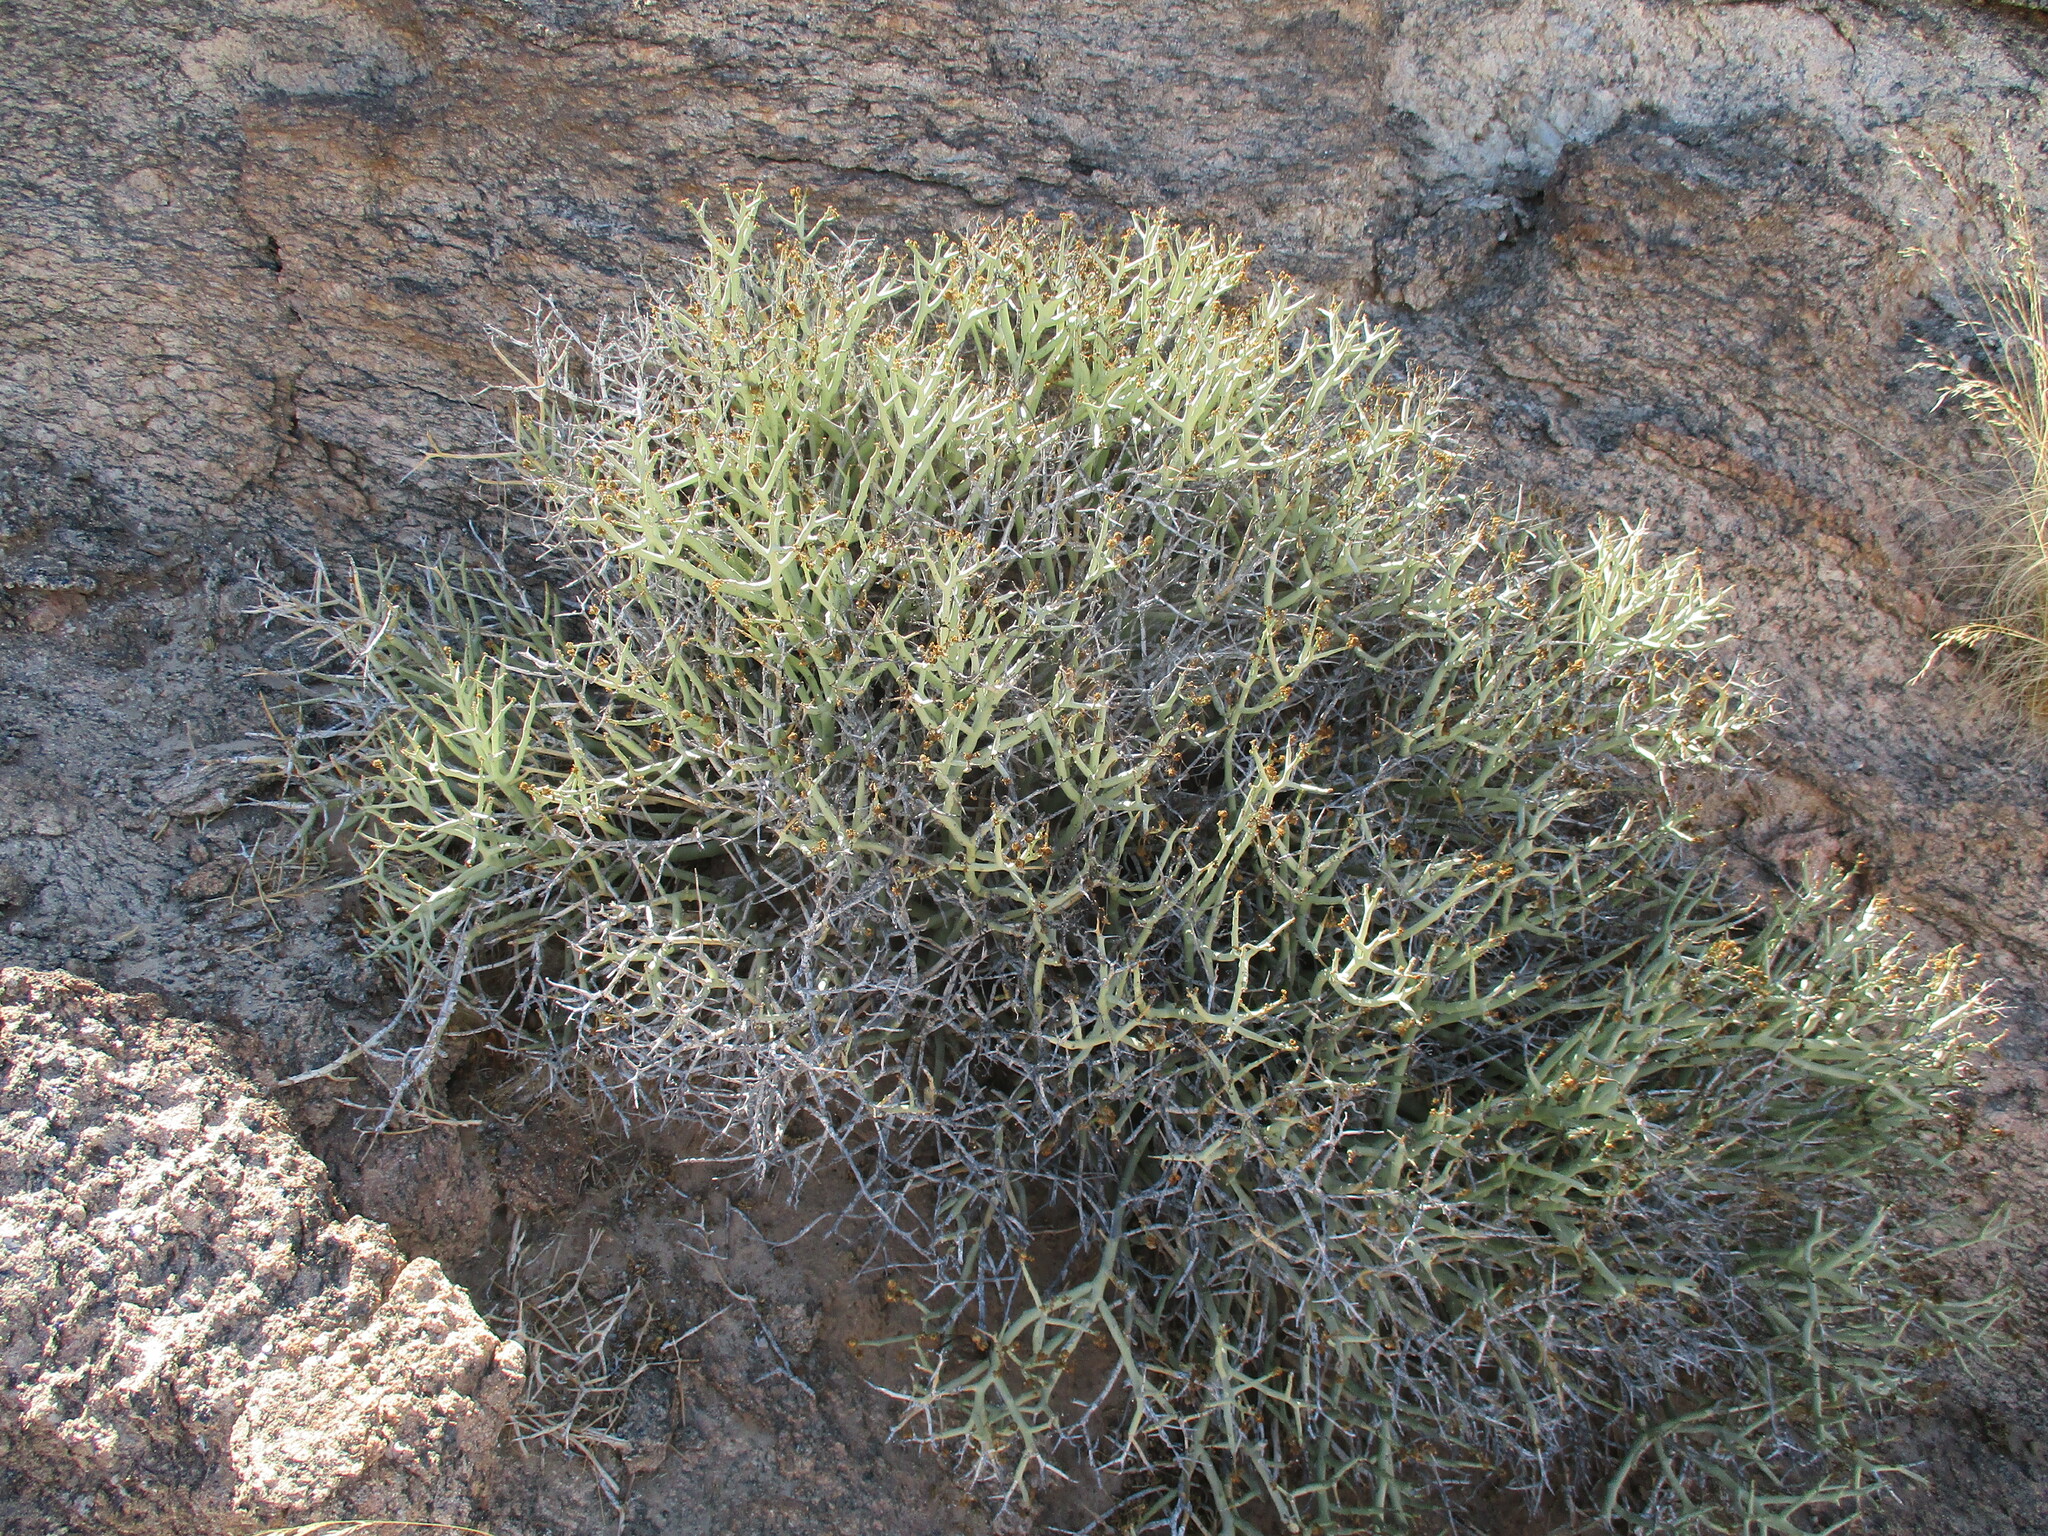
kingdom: Plantae
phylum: Tracheophyta
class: Magnoliopsida
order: Malpighiales
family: Euphorbiaceae
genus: Euphorbia
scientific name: Euphorbia lignosa
